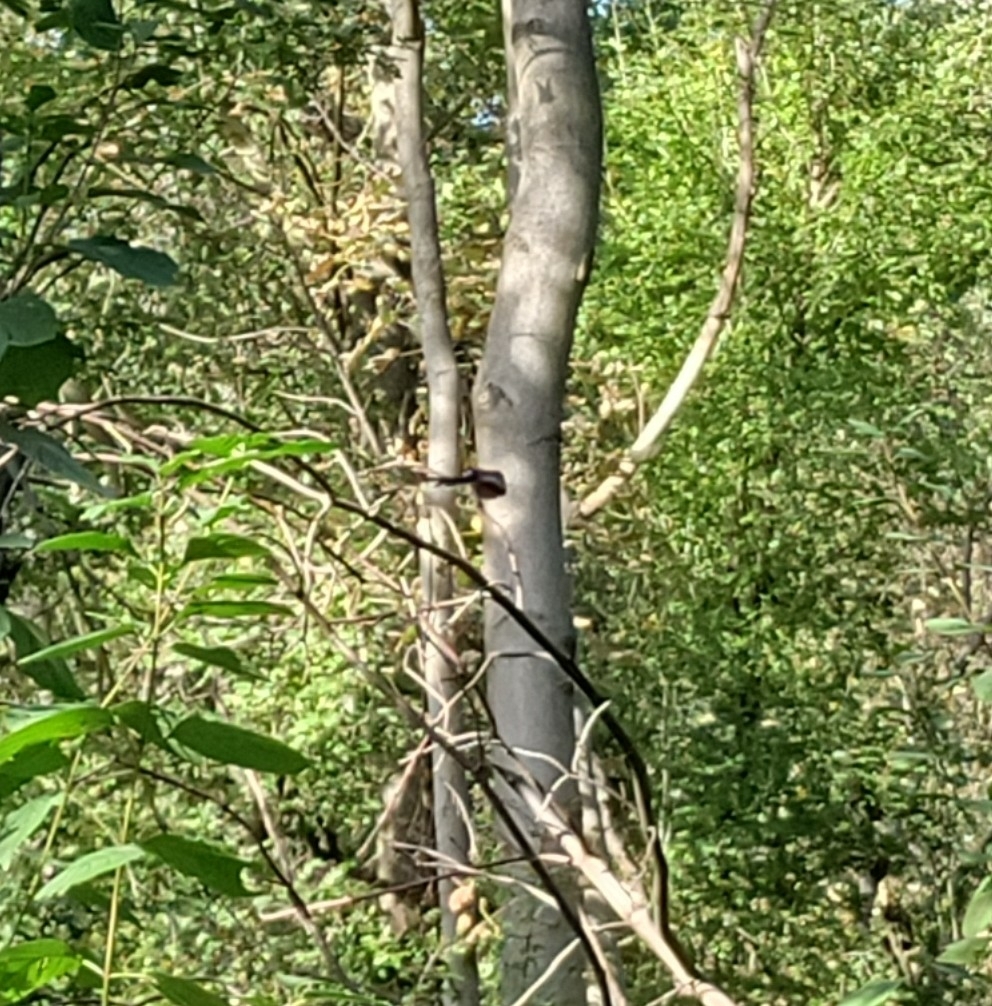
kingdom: Animalia
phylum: Chordata
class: Aves
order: Passeriformes
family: Aegithalidae
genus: Aegithalos
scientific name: Aegithalos caudatus
